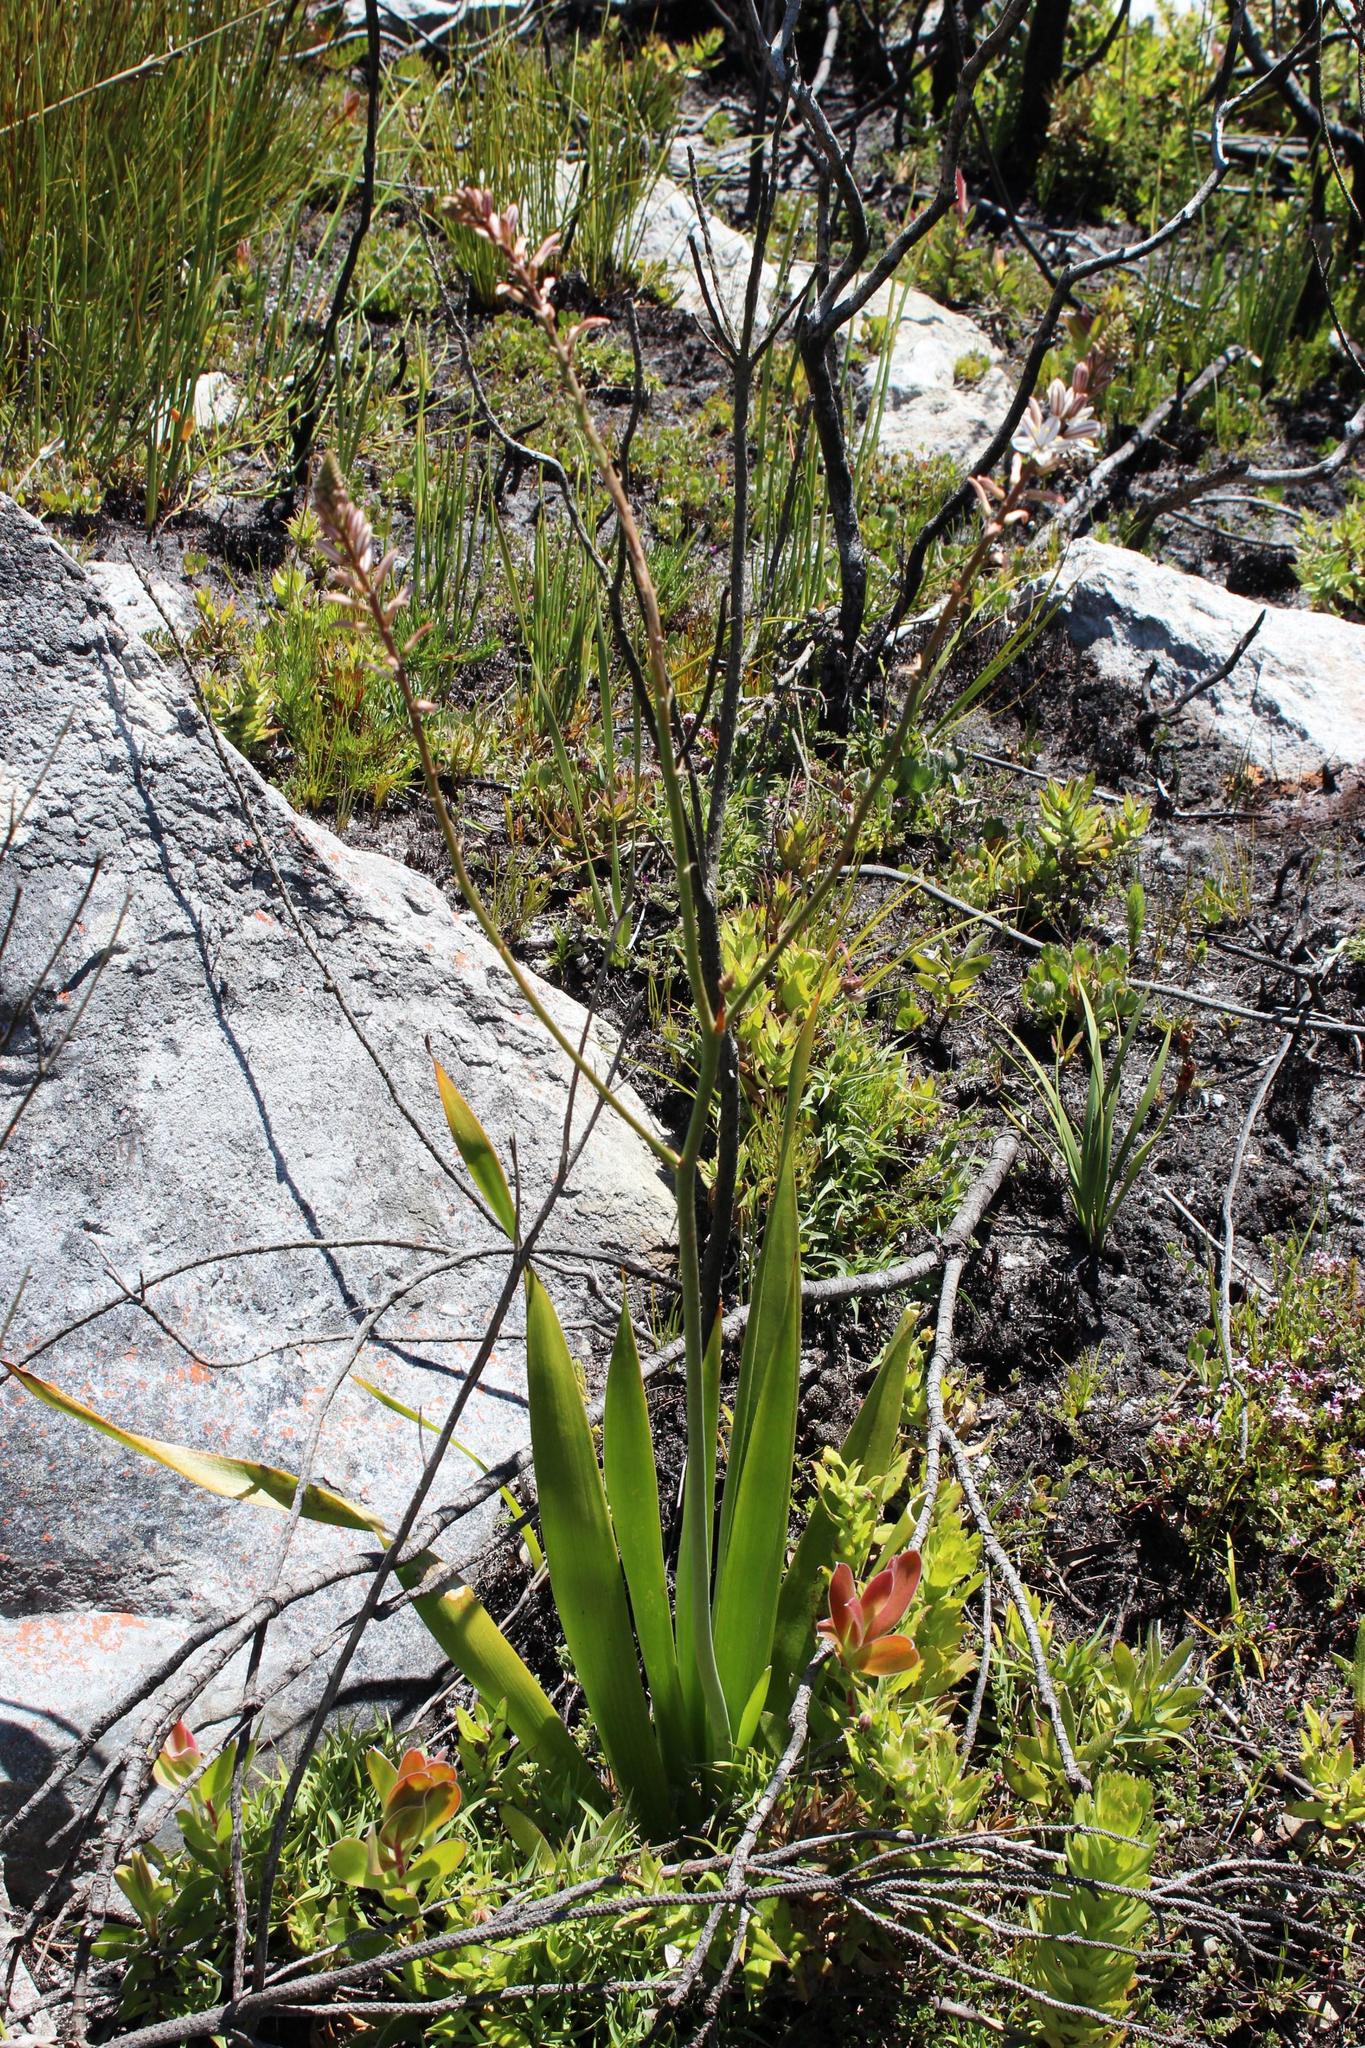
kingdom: Plantae
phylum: Tracheophyta
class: Liliopsida
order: Asparagales
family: Asphodelaceae
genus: Trachyandra
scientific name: Trachyandra tabularis
